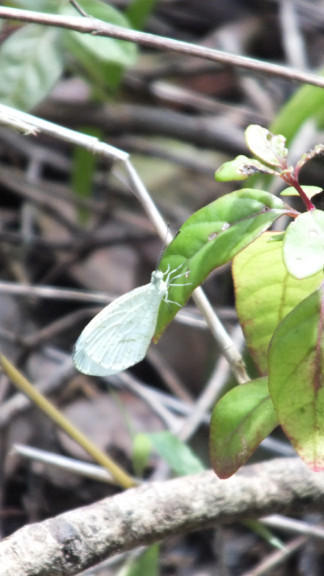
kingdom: Animalia
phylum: Arthropoda
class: Insecta
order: Lepidoptera
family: Pieridae
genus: Leptosia
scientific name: Leptosia alcesta
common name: African wood white
